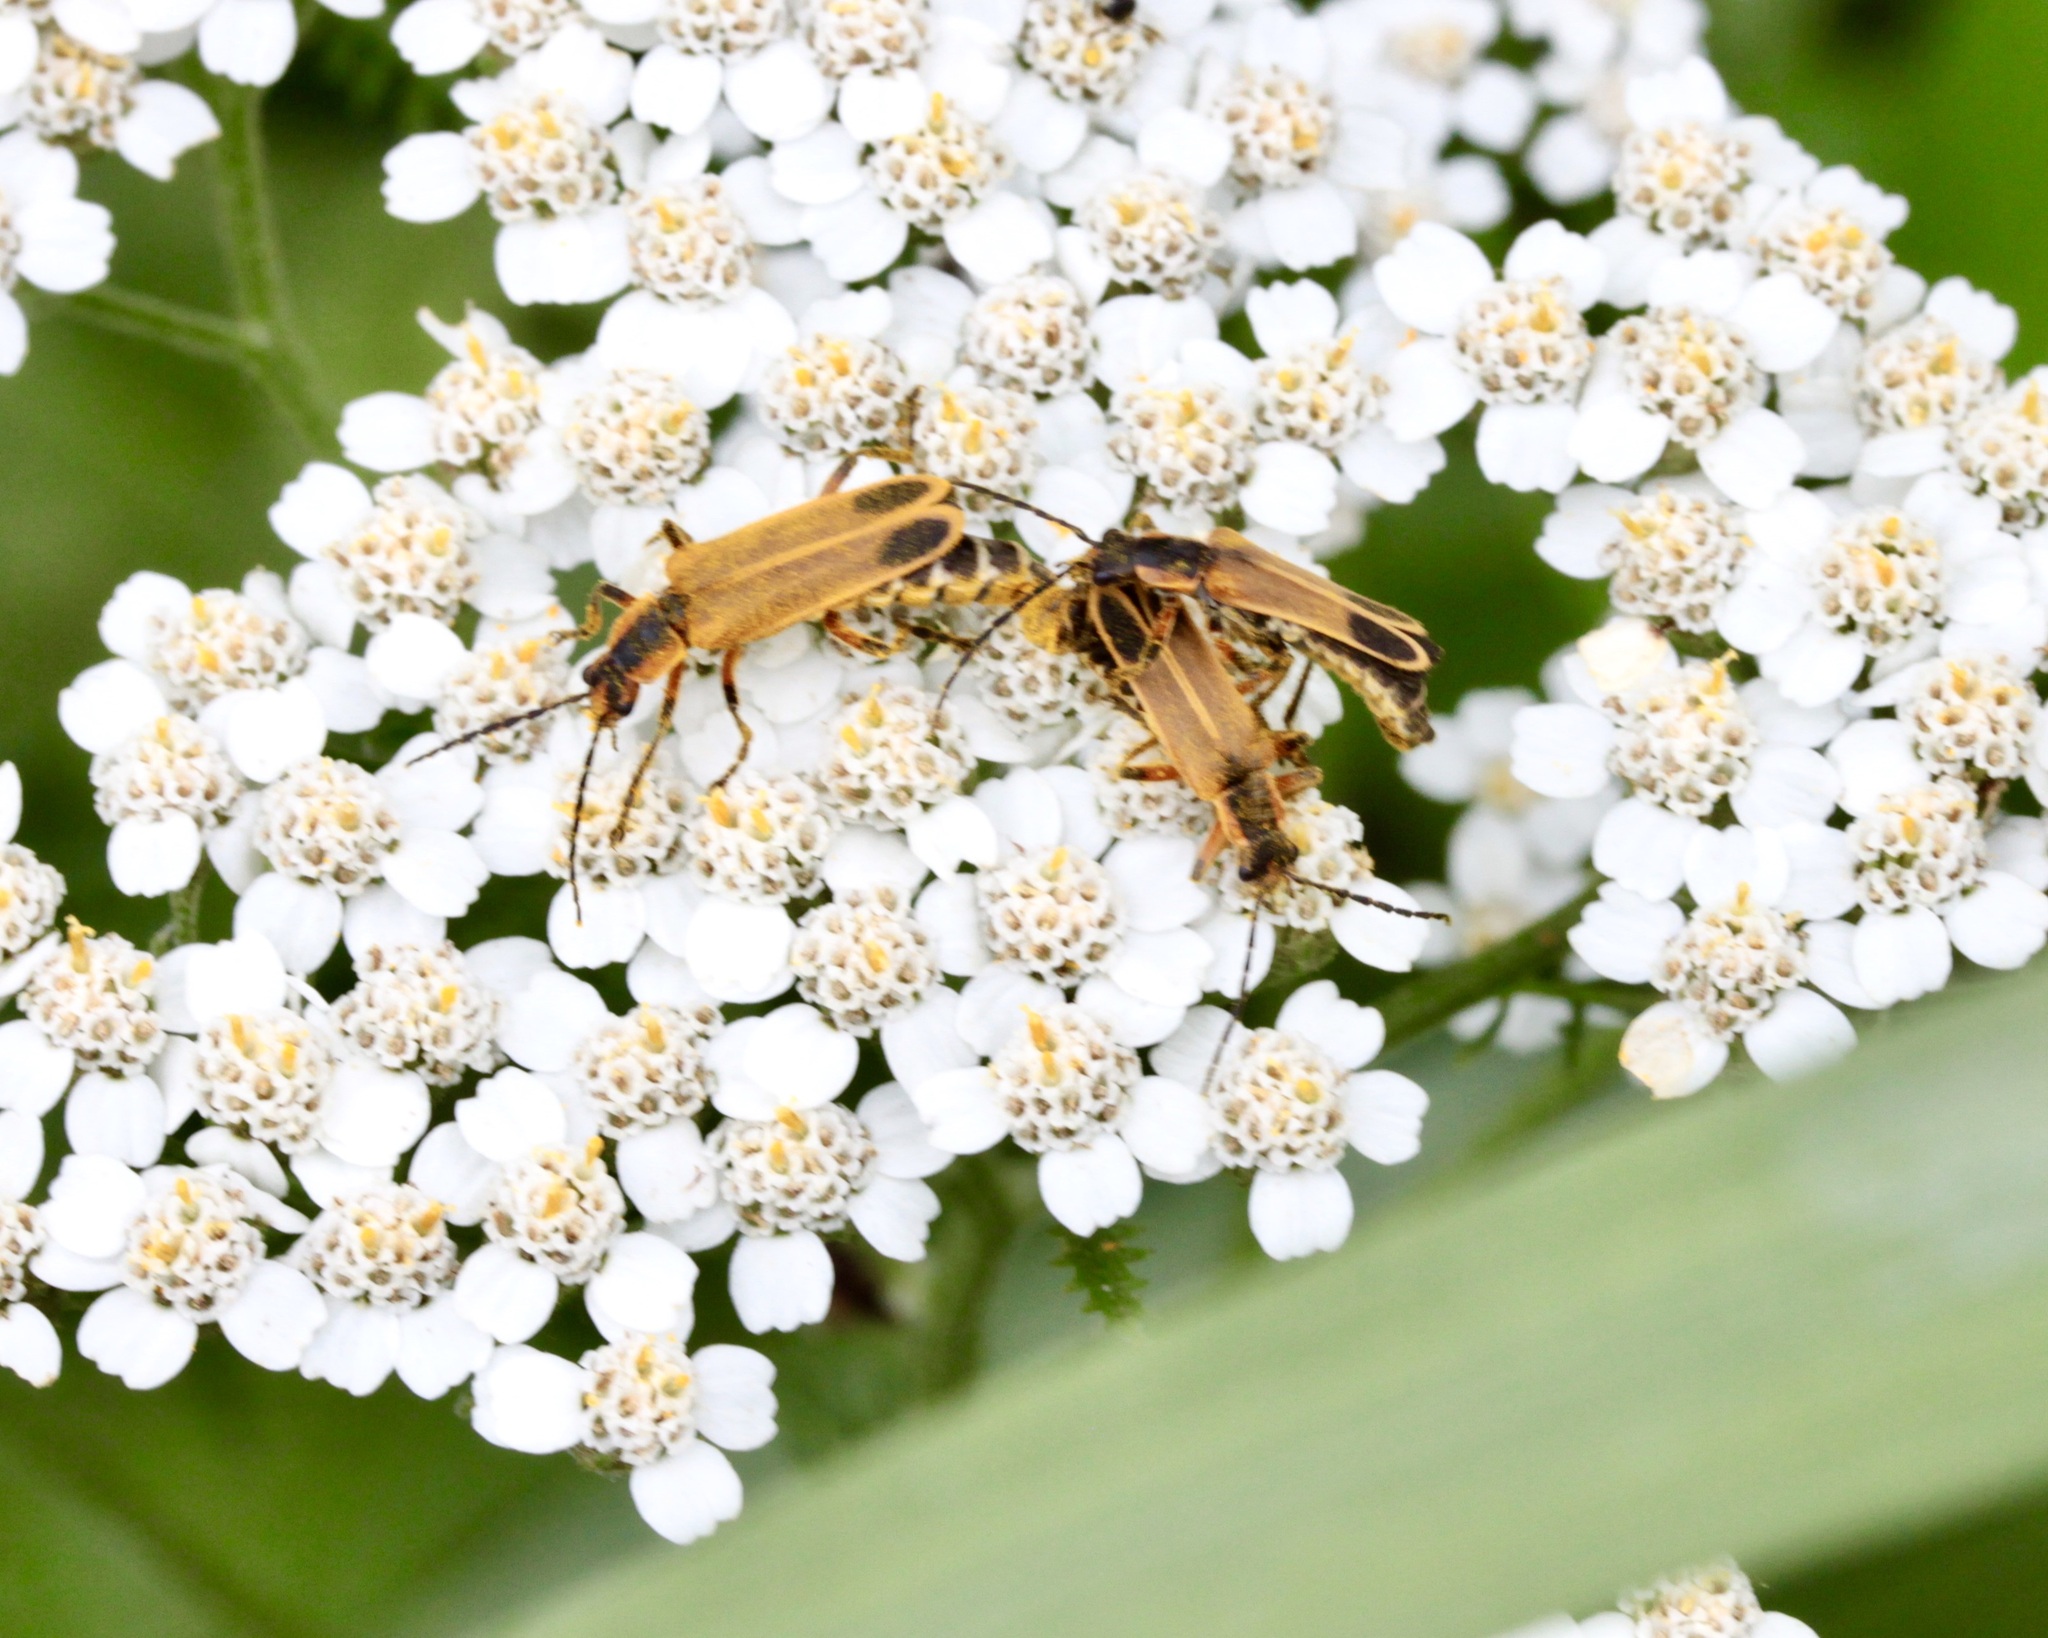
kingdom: Animalia
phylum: Arthropoda
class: Insecta
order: Coleoptera
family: Cantharidae
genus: Chauliognathus
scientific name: Chauliognathus marginatus
